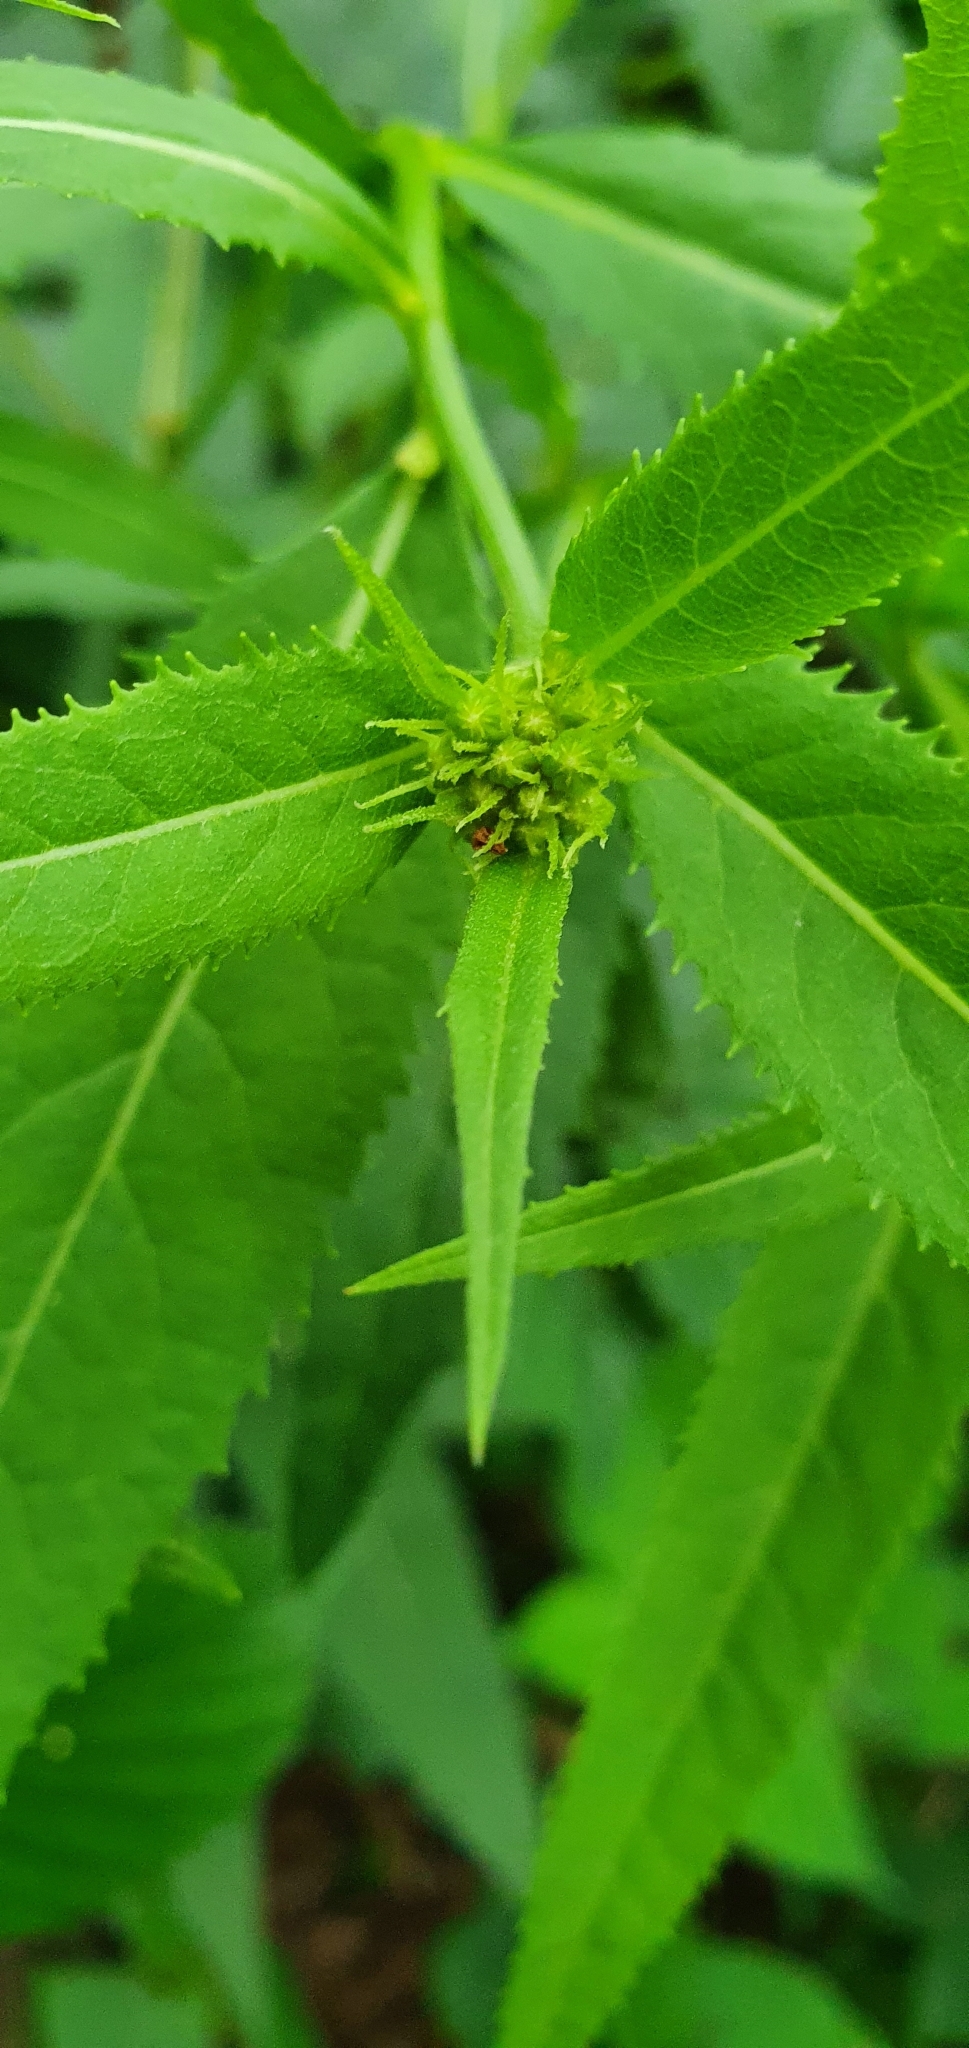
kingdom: Plantae
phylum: Tracheophyta
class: Magnoliopsida
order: Asterales
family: Asteraceae
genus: Senecio
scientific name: Senecio ovatus
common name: Wood ragwort
